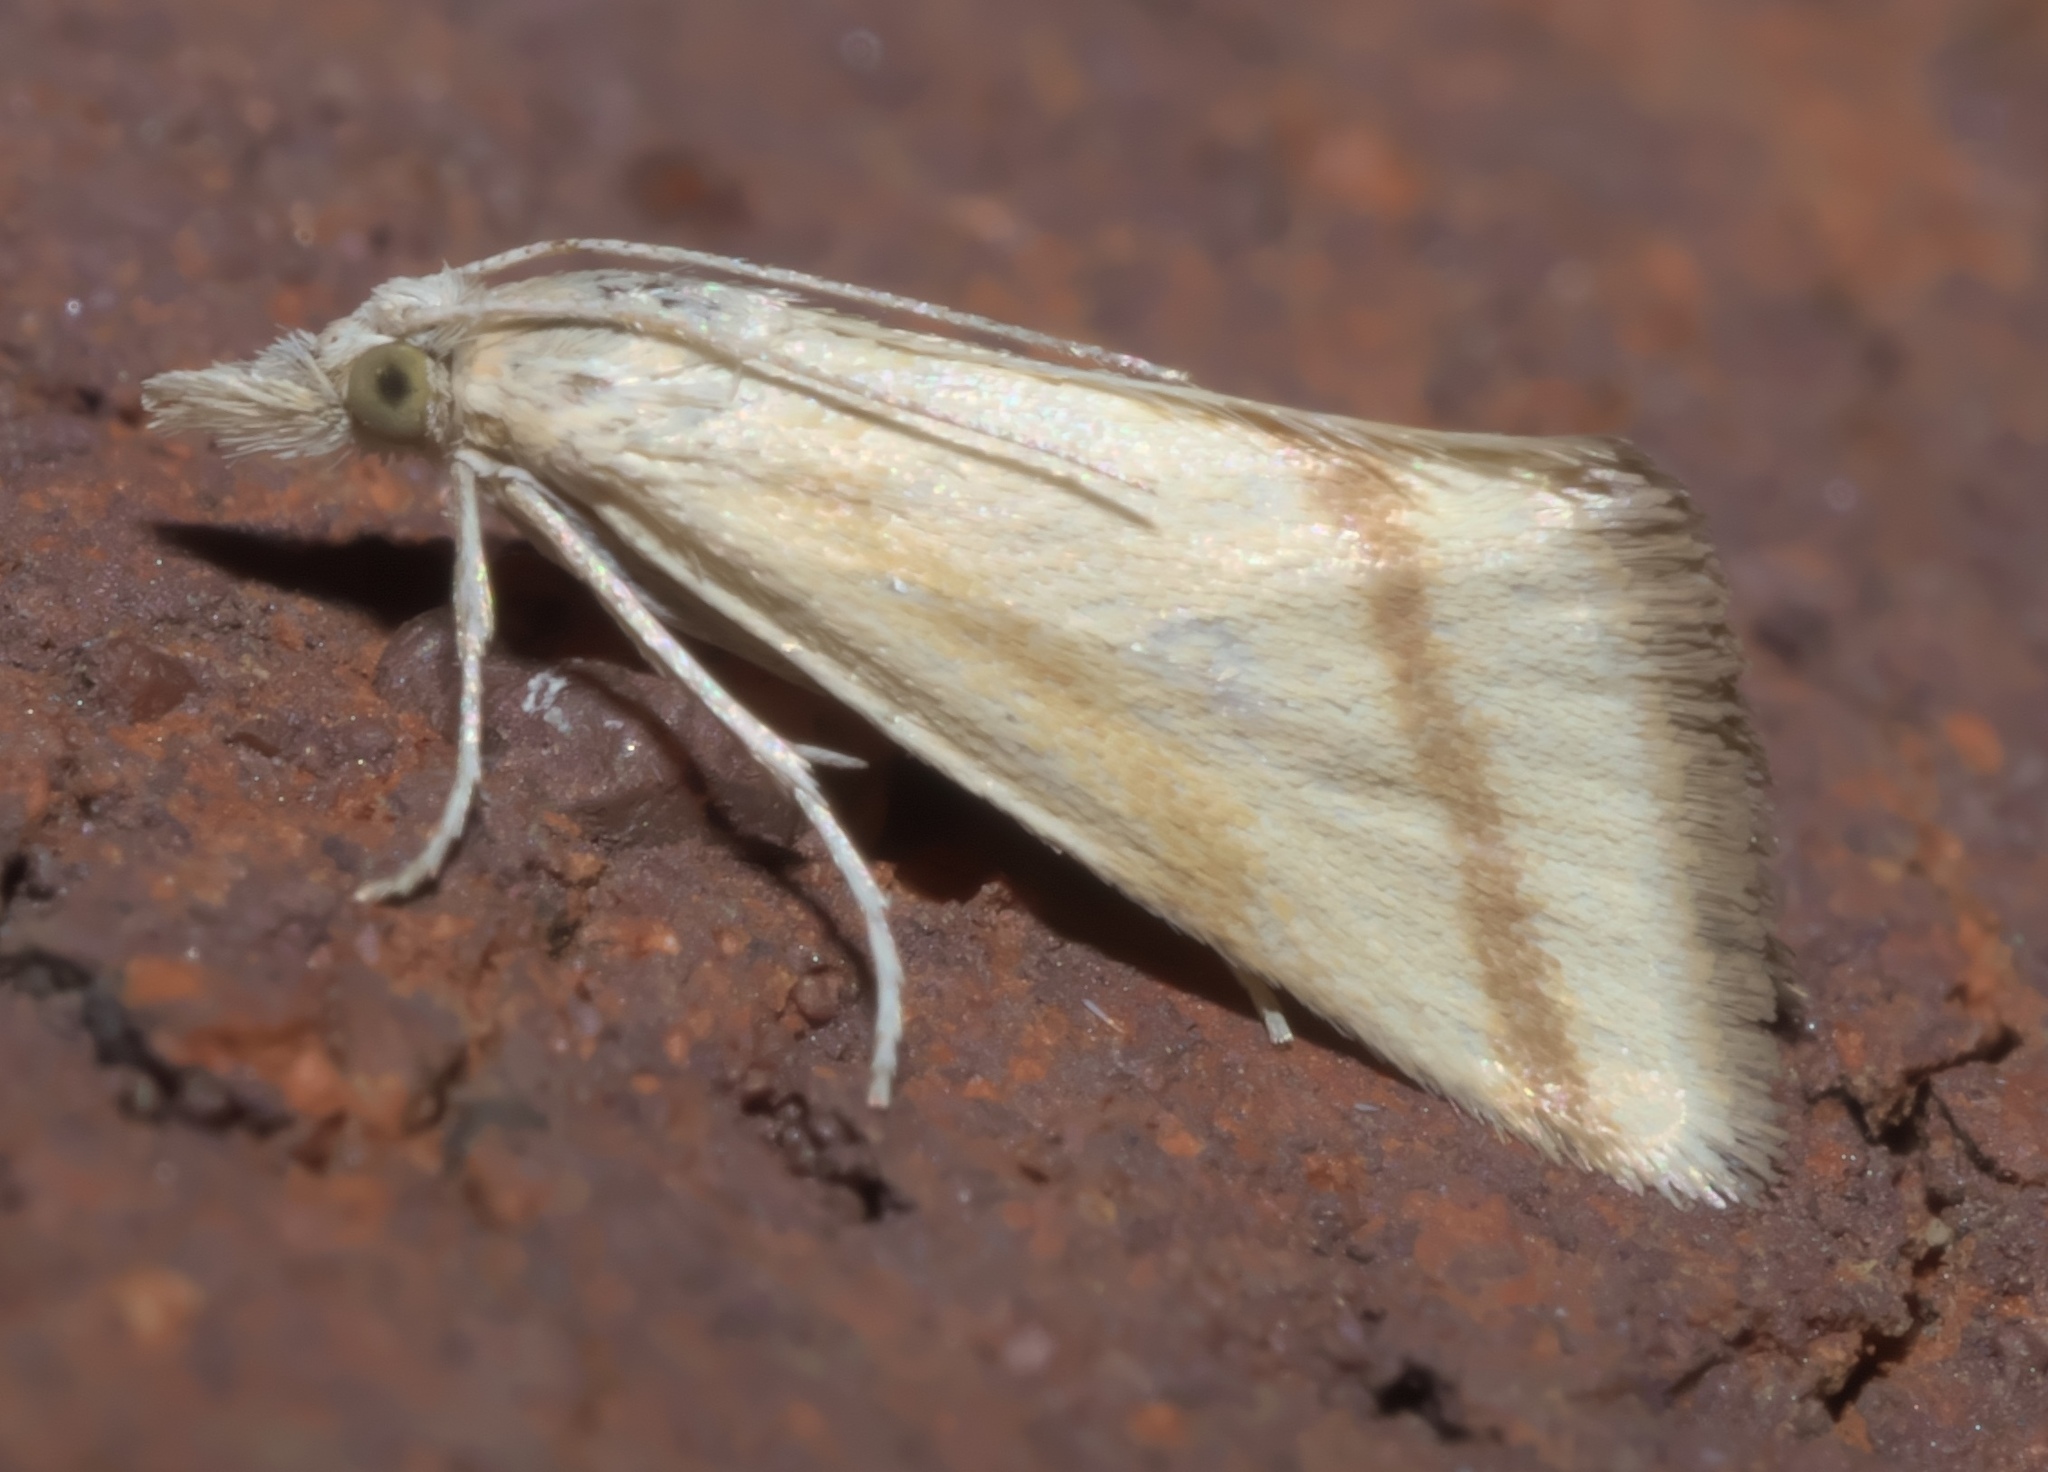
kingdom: Animalia
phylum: Arthropoda
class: Insecta
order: Lepidoptera
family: Crambidae
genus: Microtheoris
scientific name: Microtheoris vibicalis
